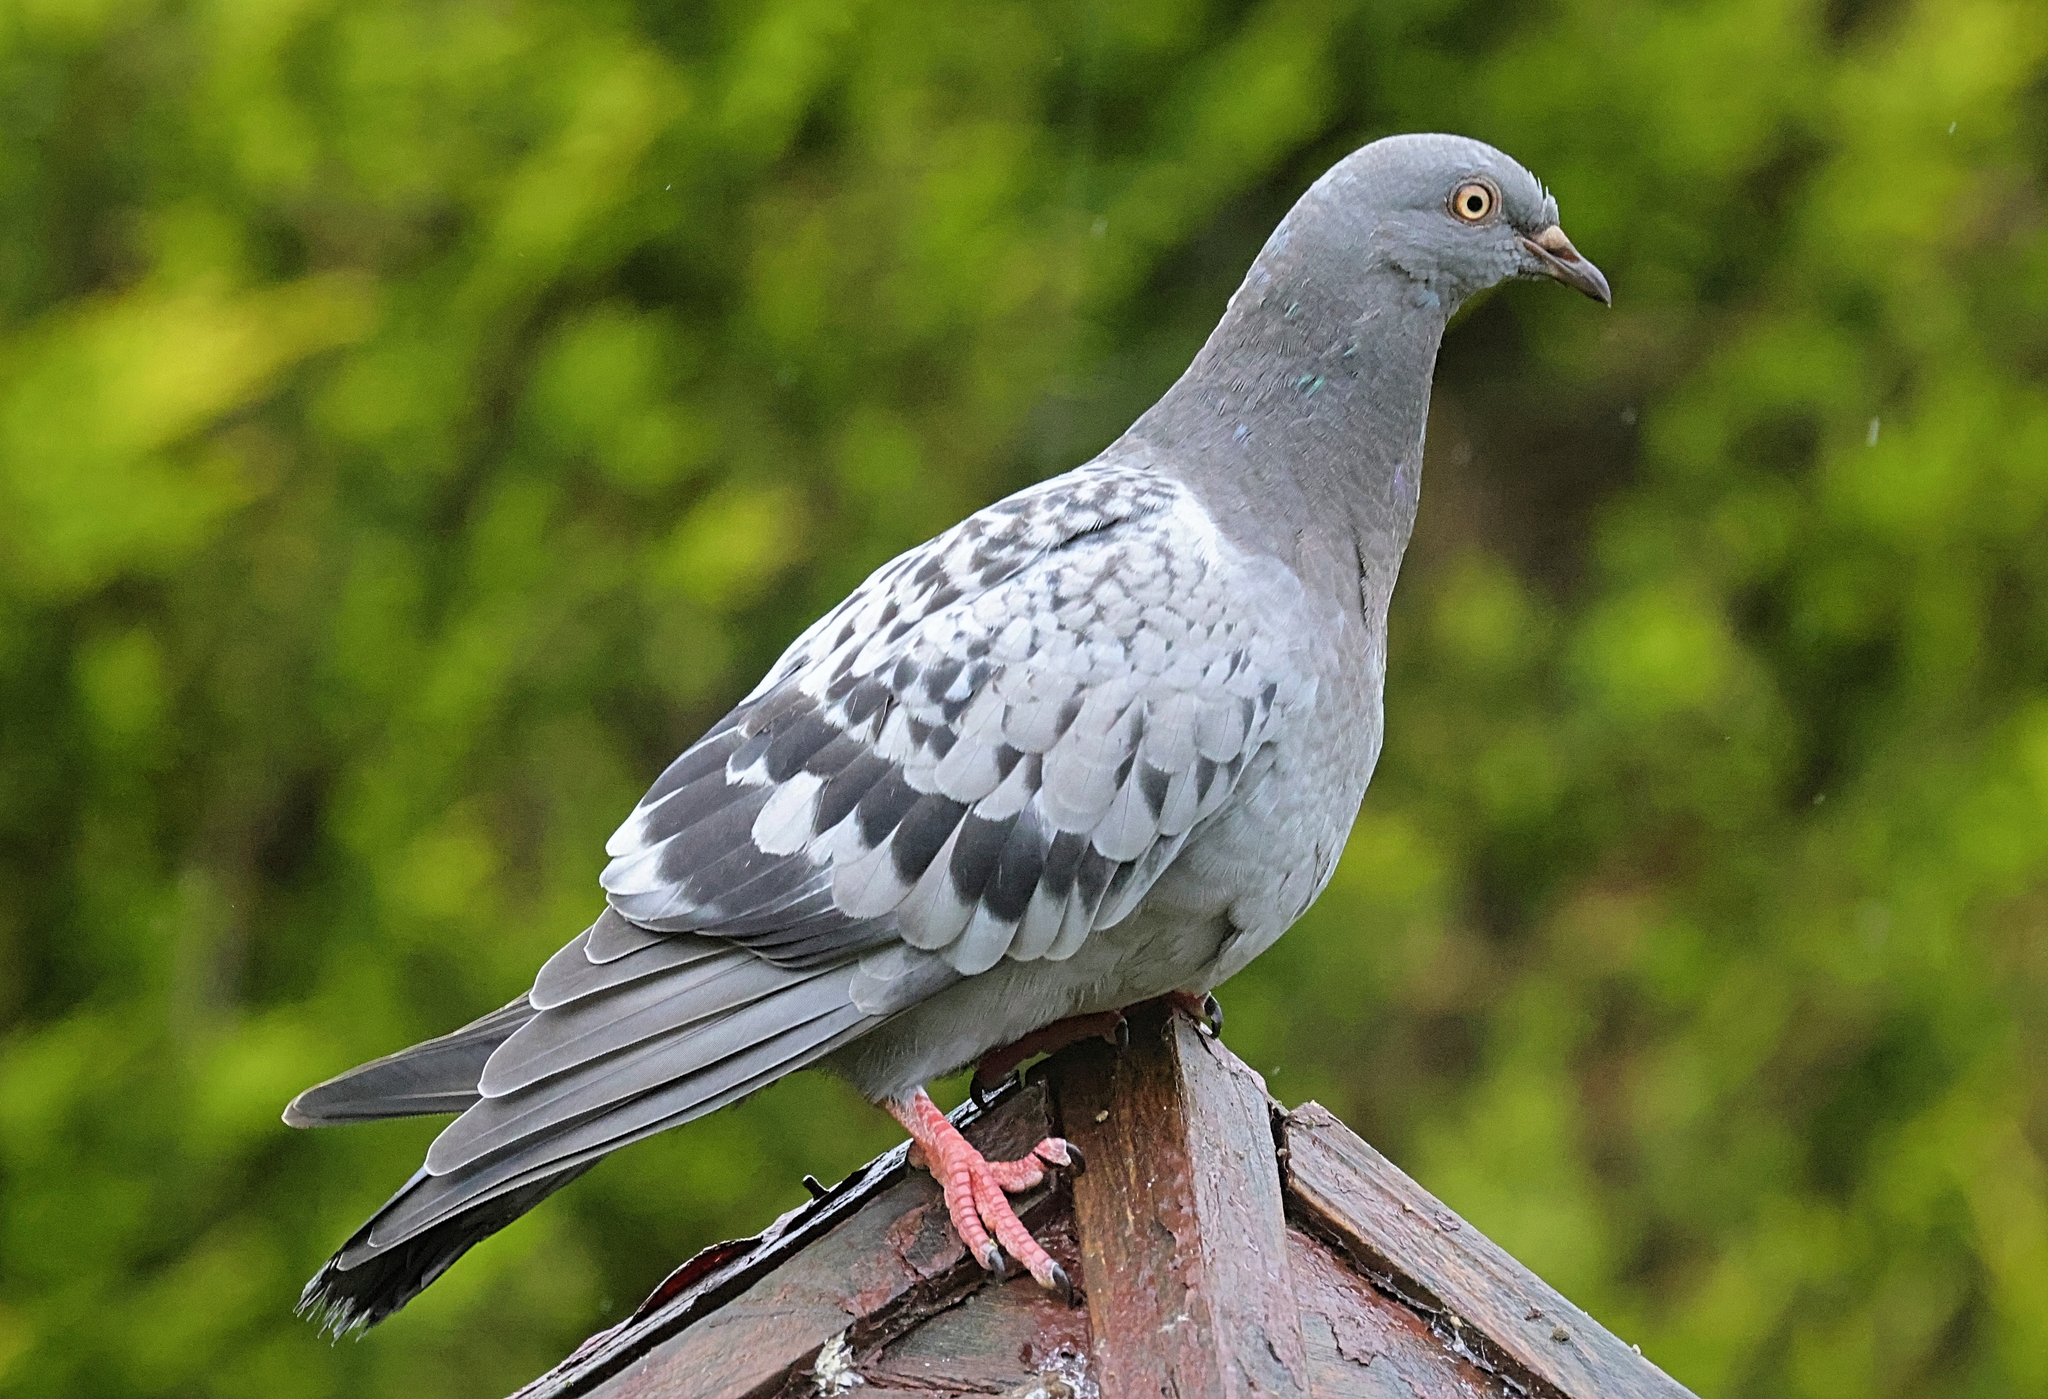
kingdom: Animalia
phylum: Chordata
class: Aves
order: Columbiformes
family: Columbidae
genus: Columba
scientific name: Columba livia
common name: Rock pigeon
